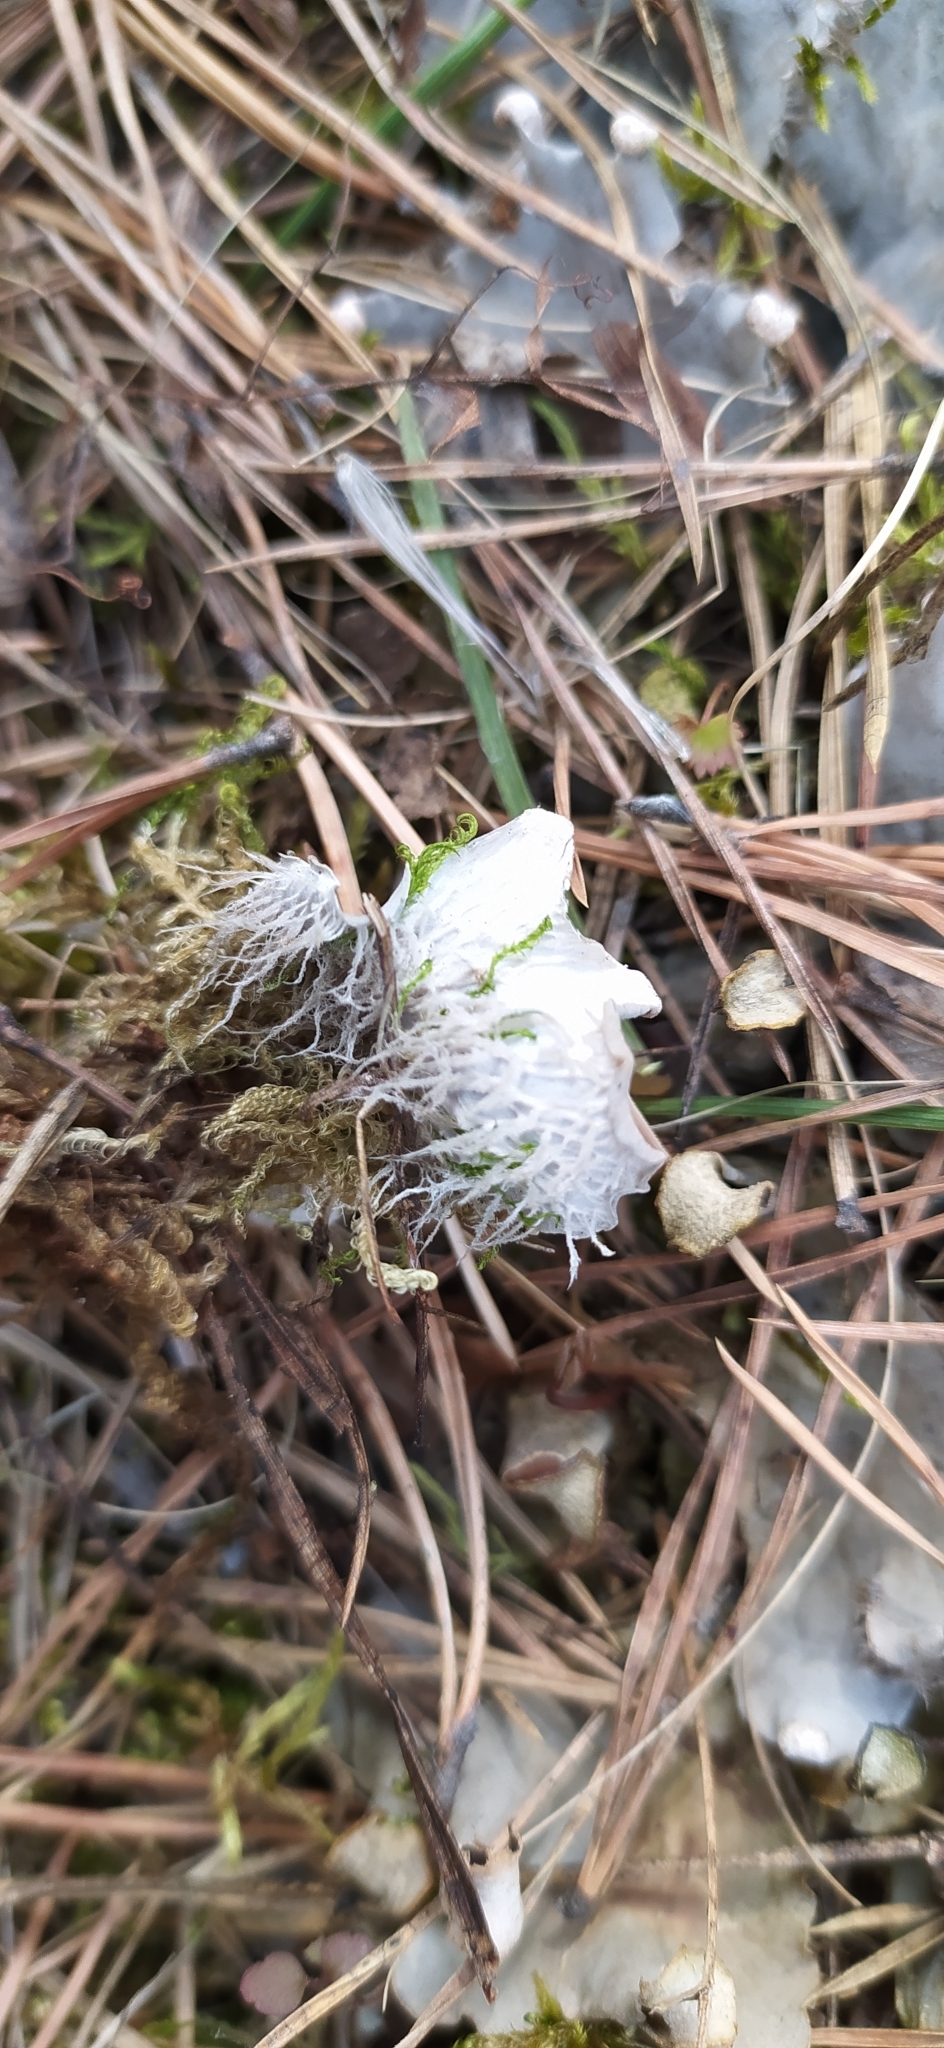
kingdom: Fungi
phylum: Ascomycota
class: Lecanoromycetes
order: Peltigerales
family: Peltigeraceae
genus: Peltigera
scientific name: Peltigera canina
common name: Dog pelt lichen
